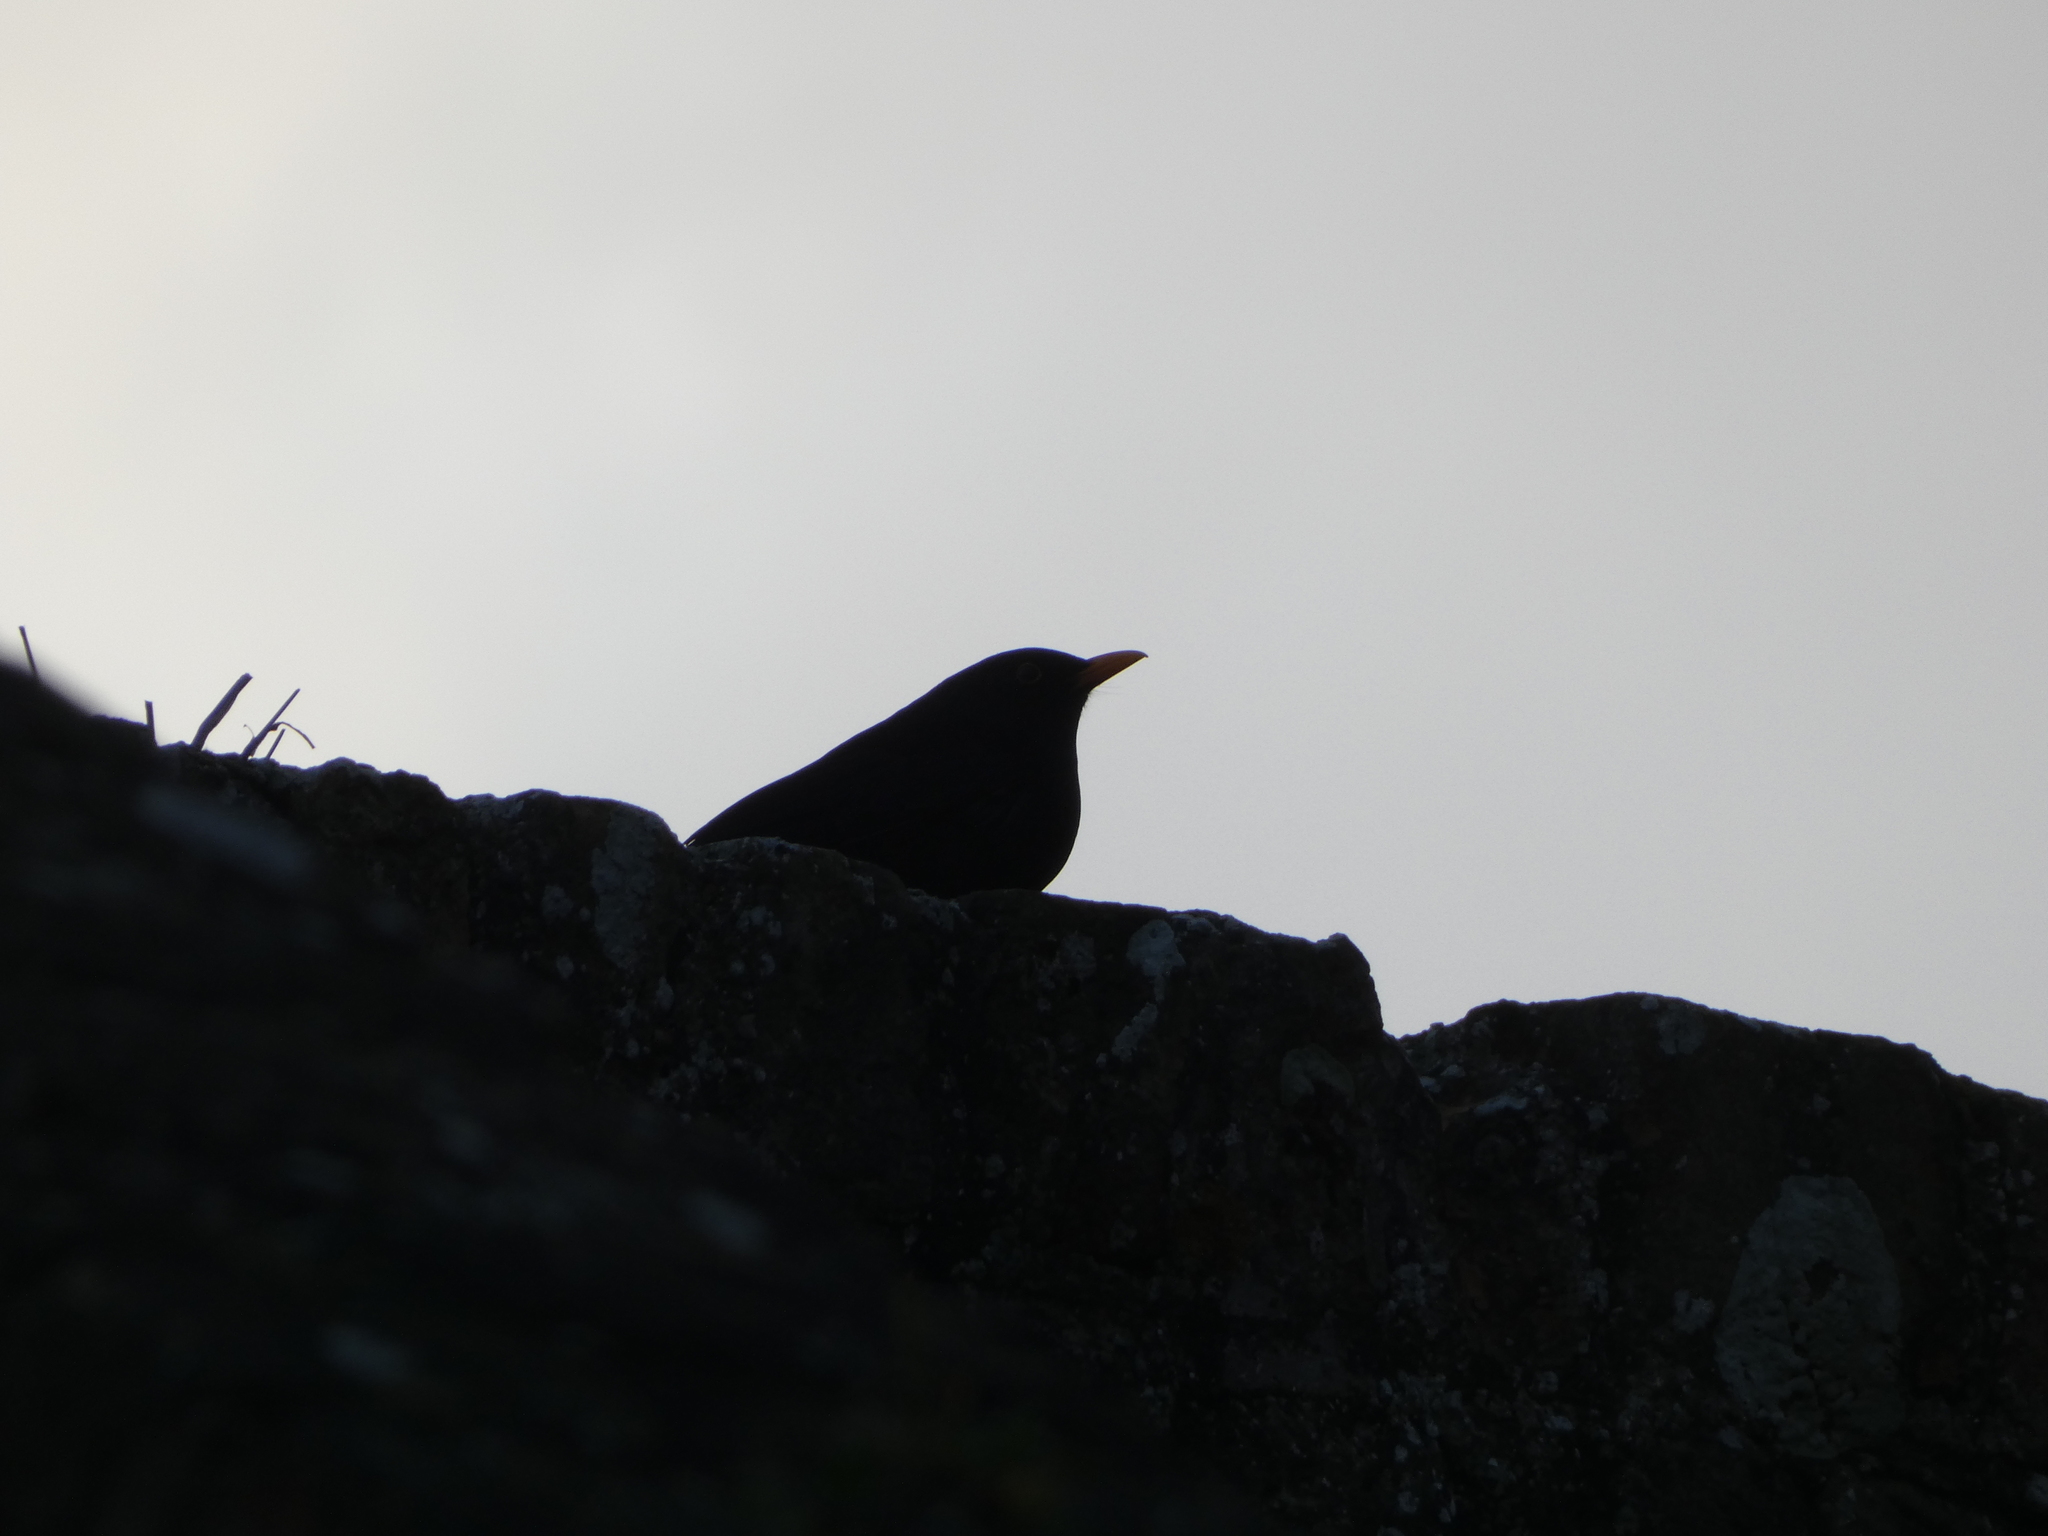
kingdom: Animalia
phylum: Chordata
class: Aves
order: Passeriformes
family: Turdidae
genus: Turdus
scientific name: Turdus merula
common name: Common blackbird
